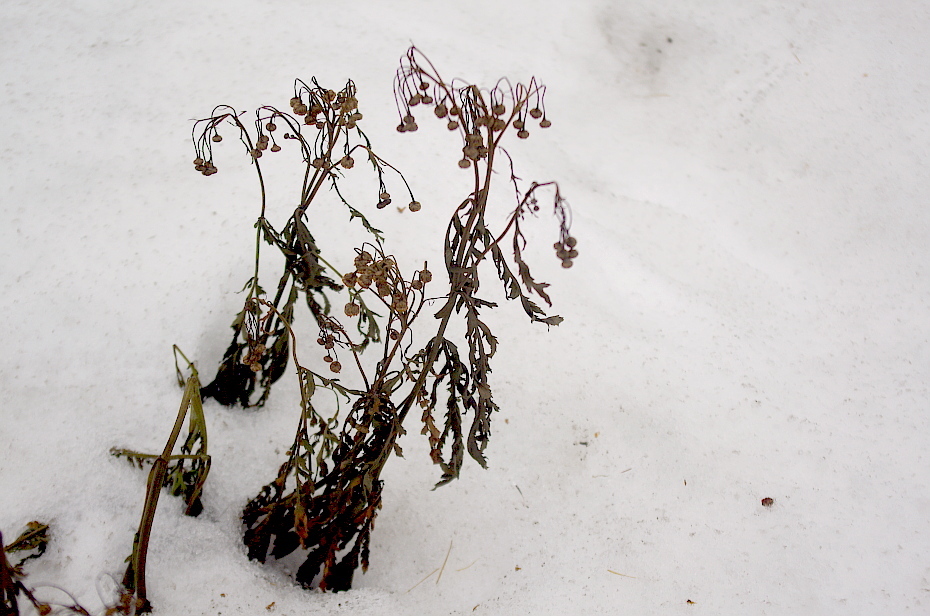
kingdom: Plantae
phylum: Tracheophyta
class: Magnoliopsida
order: Asterales
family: Asteraceae
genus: Tanacetum
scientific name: Tanacetum vulgare
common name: Common tansy
